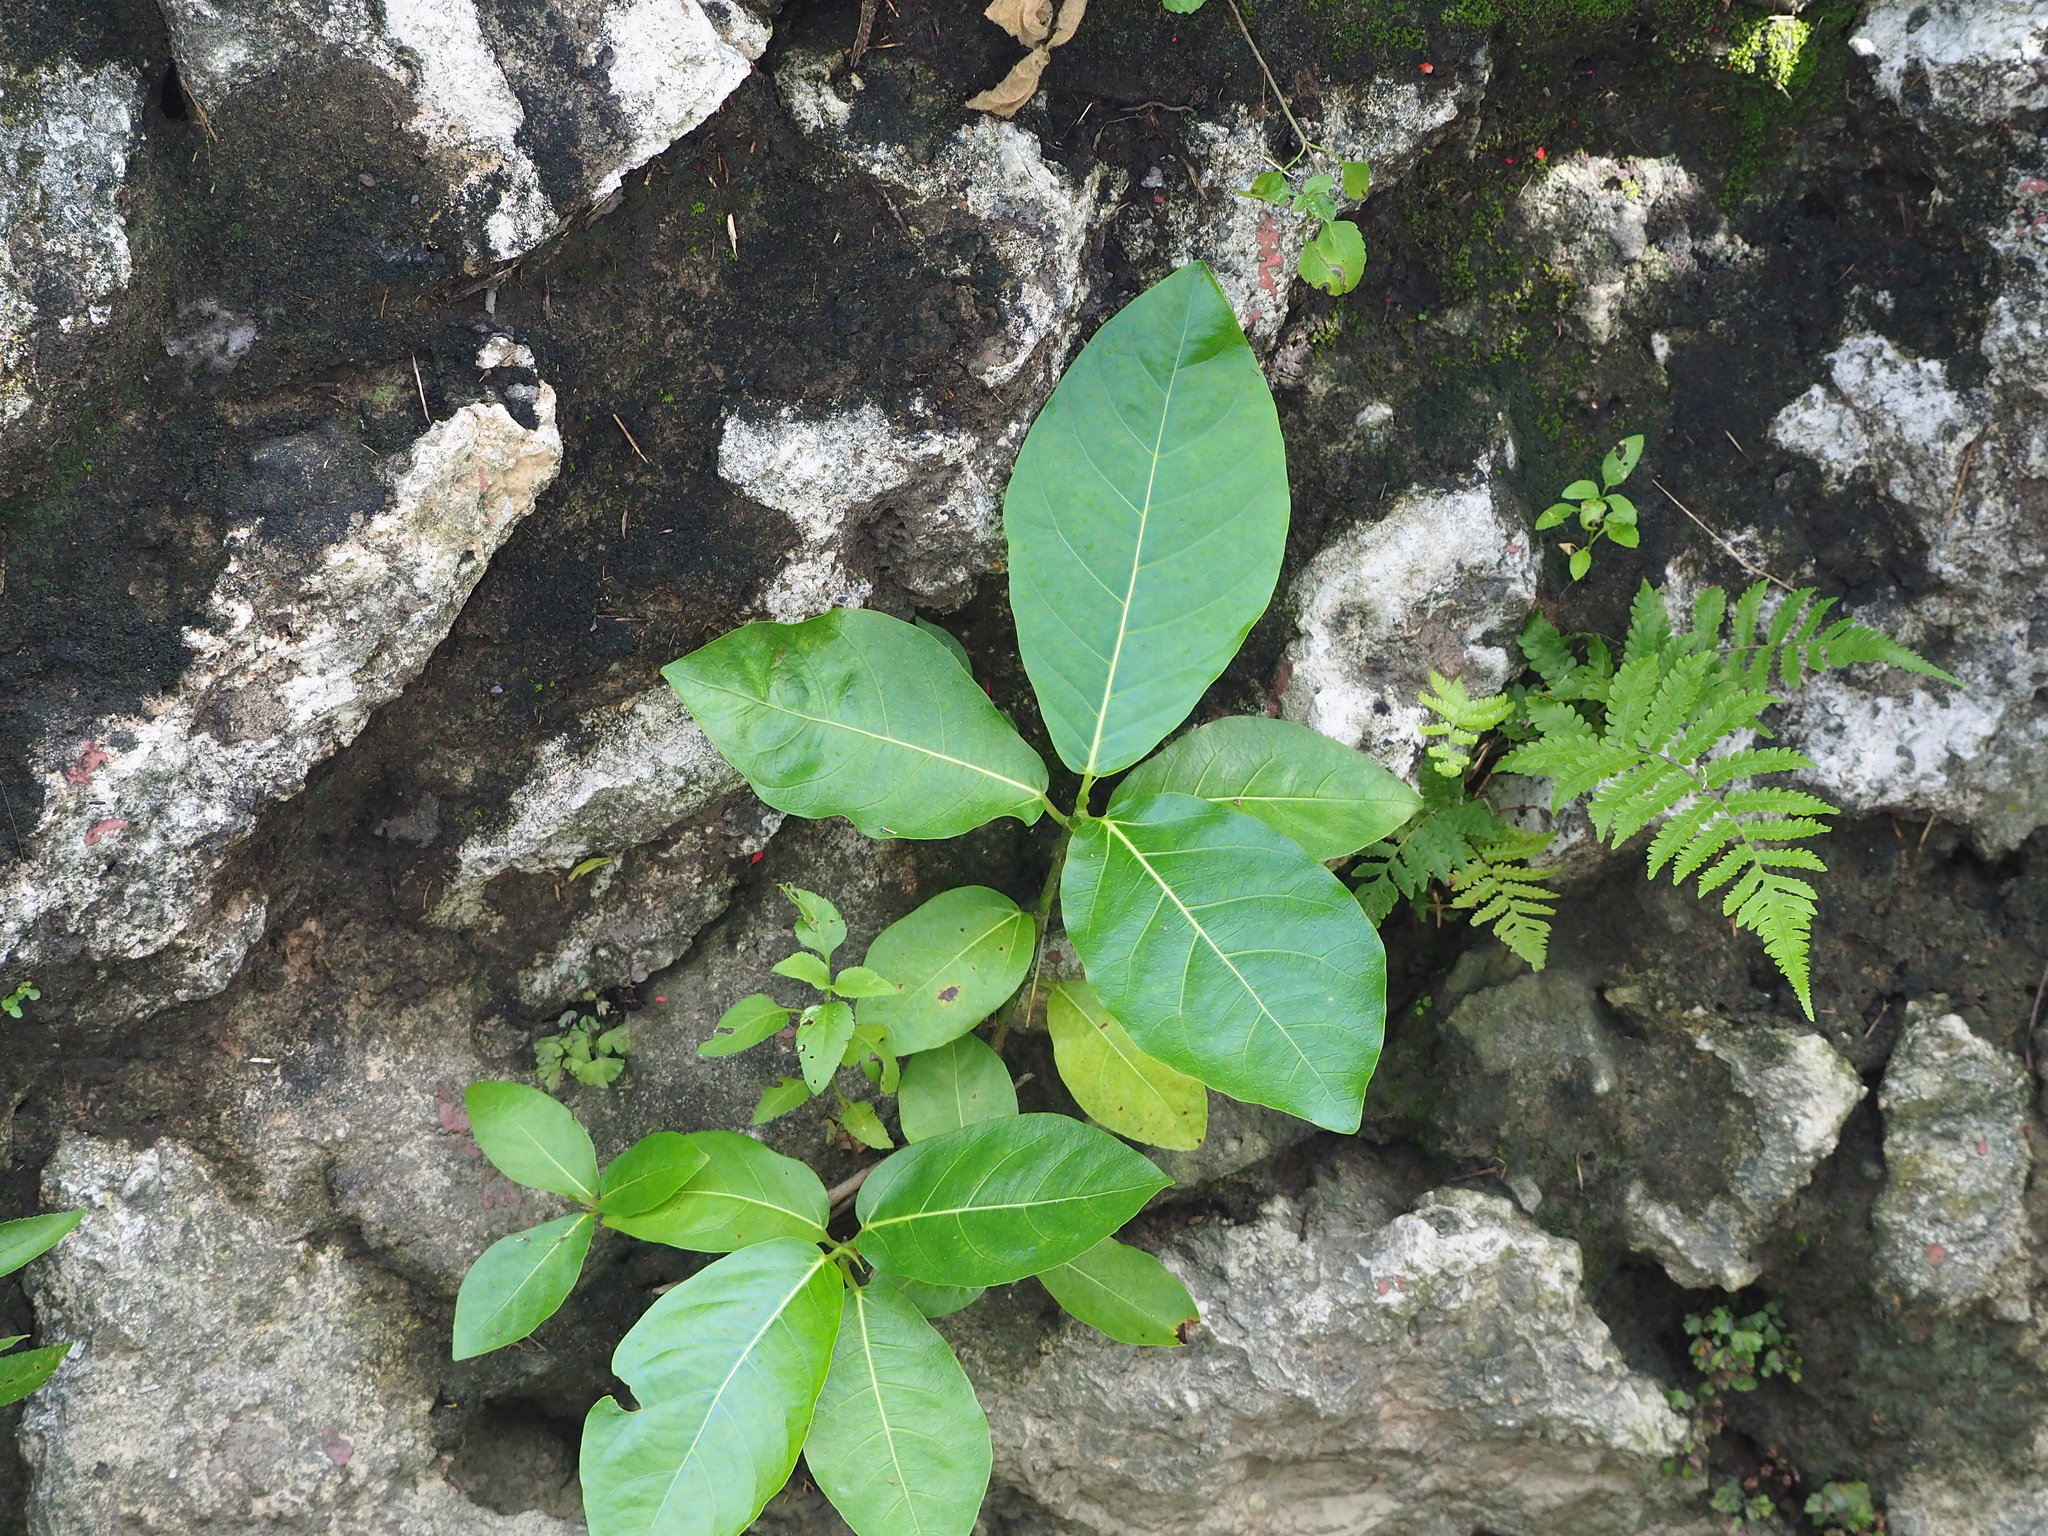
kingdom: Plantae
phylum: Tracheophyta
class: Magnoliopsida
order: Rosales
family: Moraceae
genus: Ficus
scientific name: Ficus septica
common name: Septic fig
